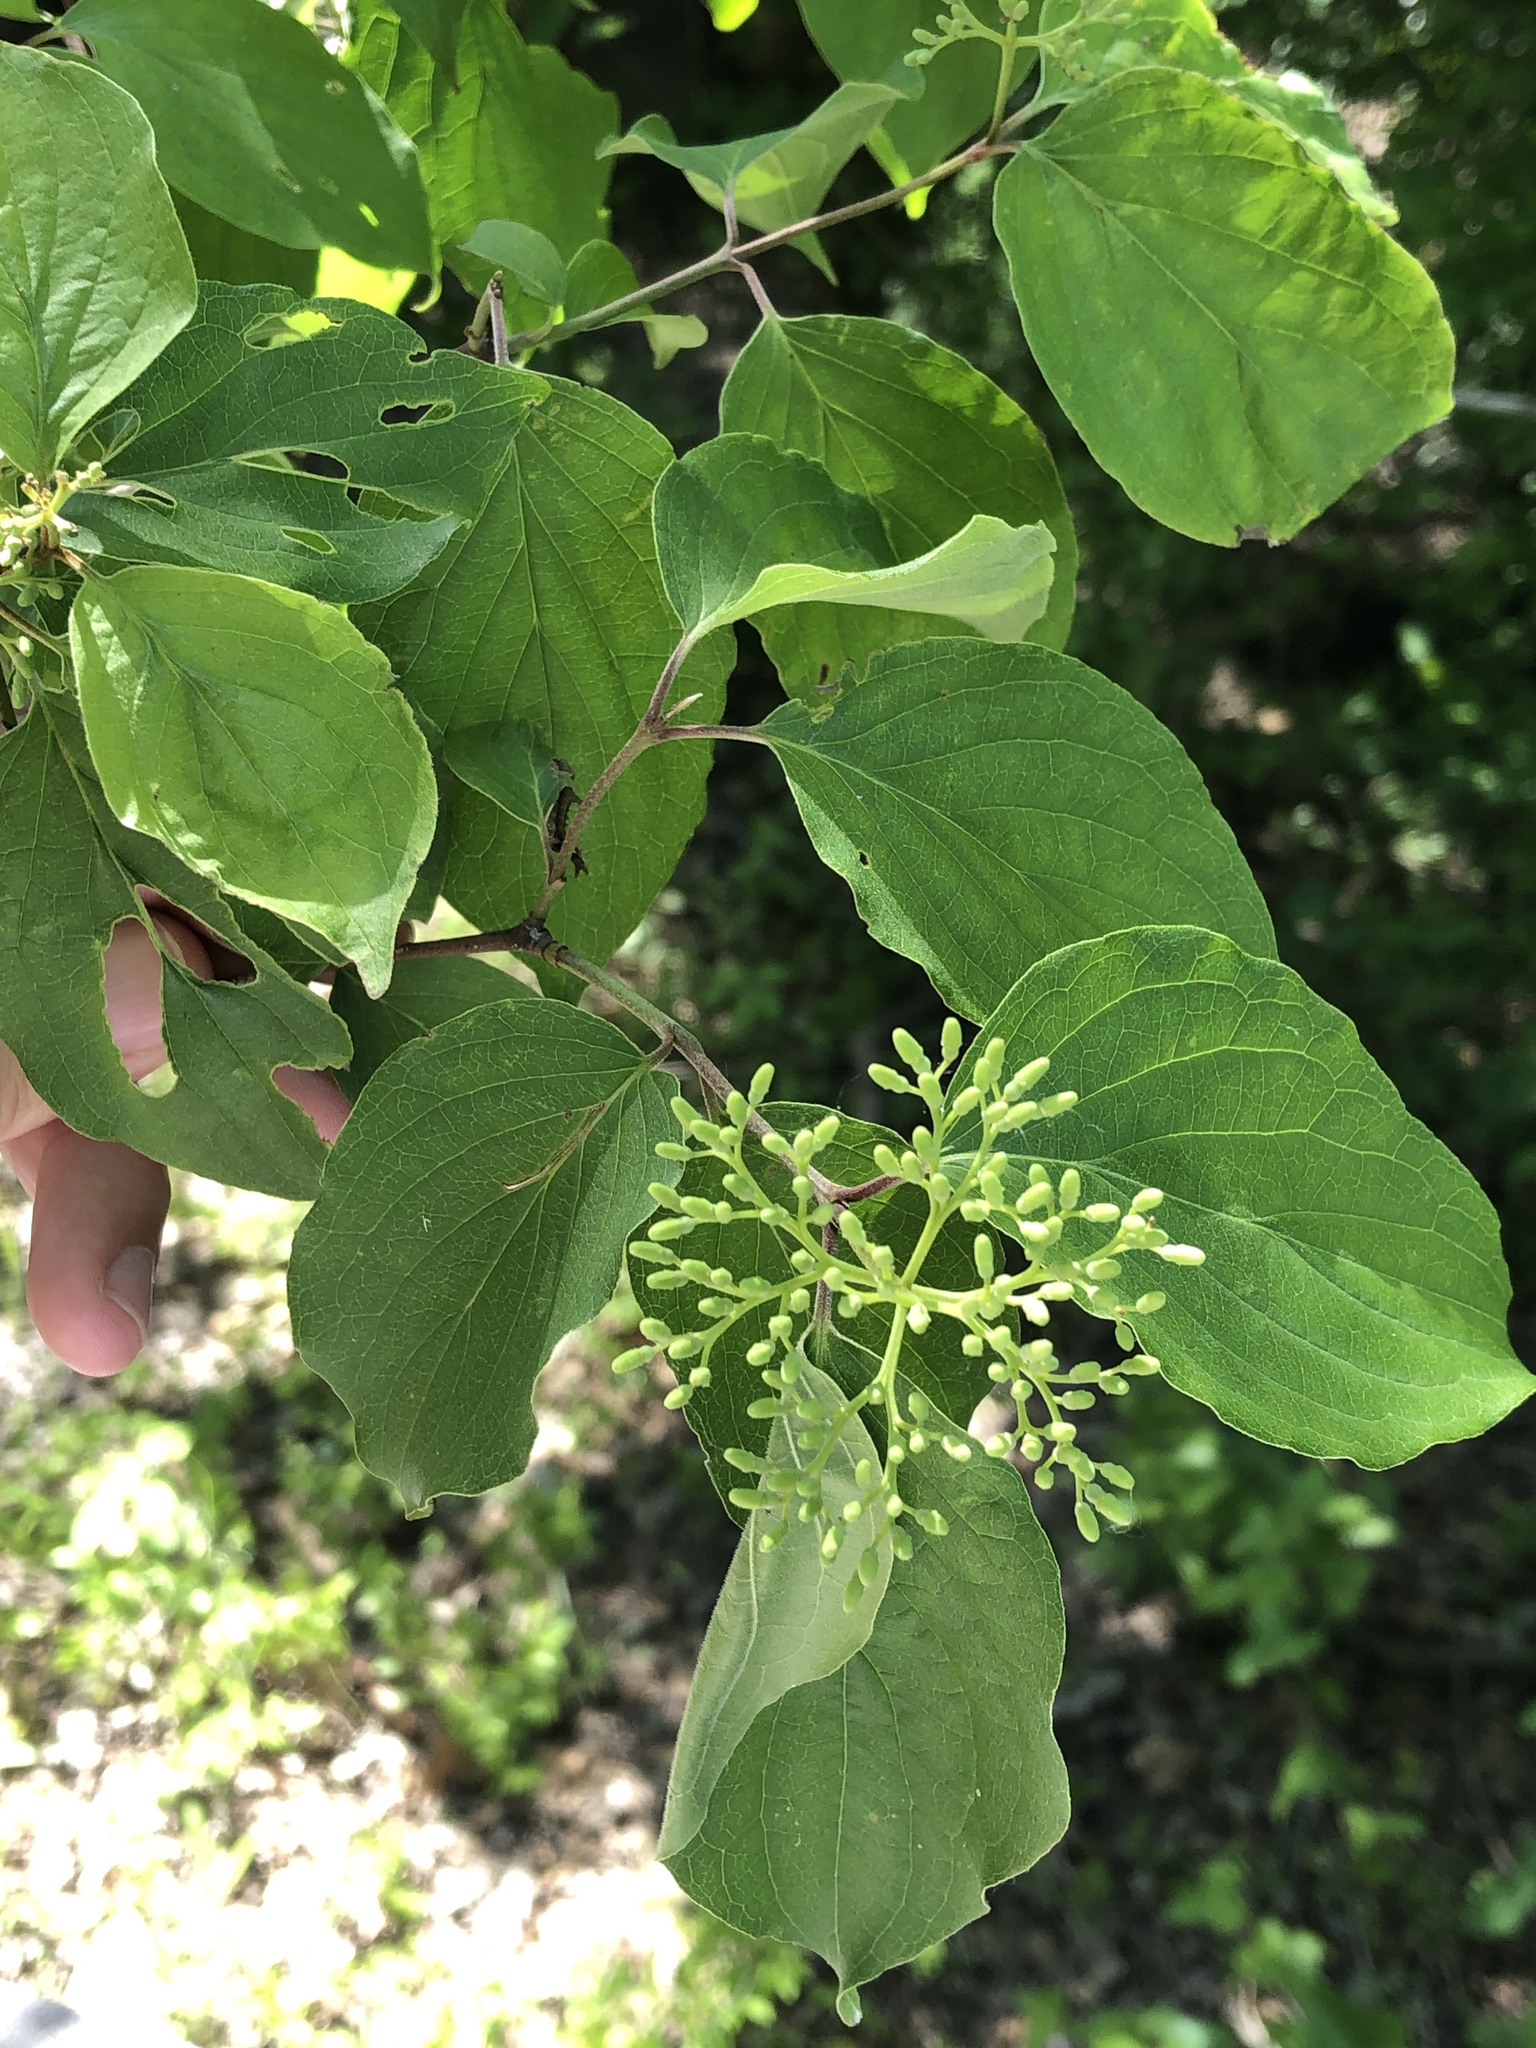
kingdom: Plantae
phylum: Tracheophyta
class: Magnoliopsida
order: Cornales
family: Cornaceae
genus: Cornus
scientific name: Cornus drummondii
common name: Rough-leaf dogwood
